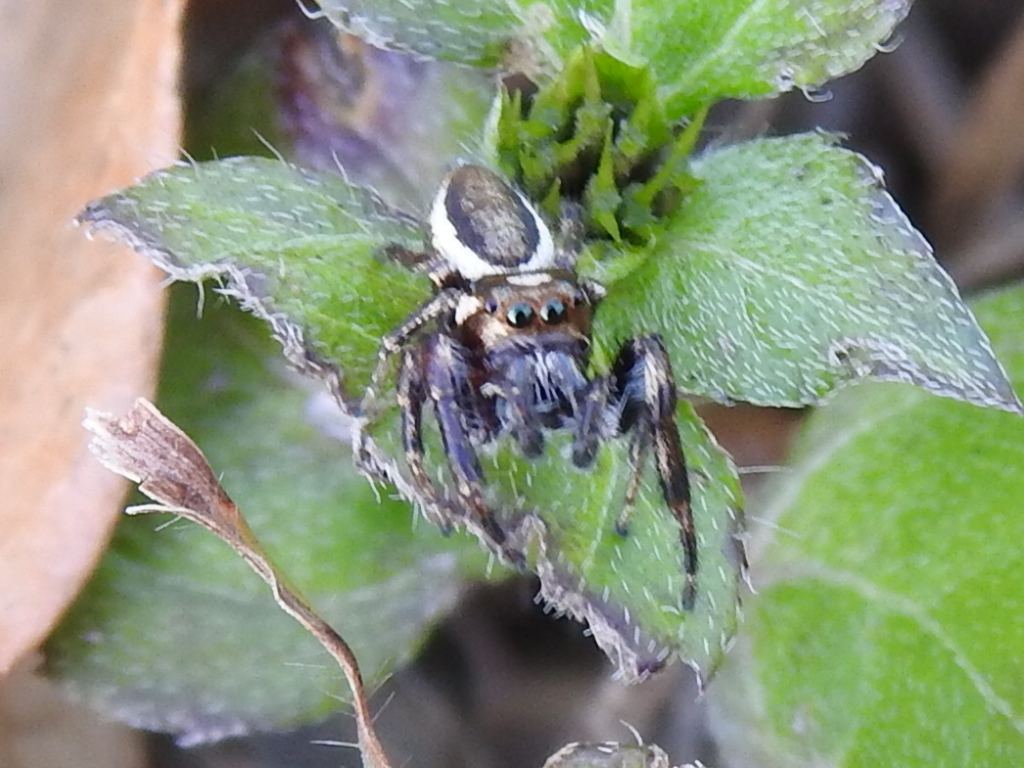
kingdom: Animalia
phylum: Arthropoda
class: Arachnida
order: Araneae
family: Salticidae
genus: Eris
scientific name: Eris militaris
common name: Bronze jumper
